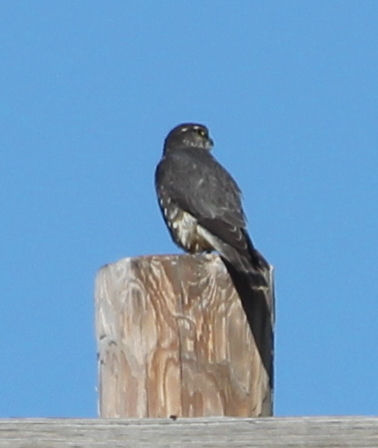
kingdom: Animalia
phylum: Chordata
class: Aves
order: Falconiformes
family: Falconidae
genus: Falco
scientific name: Falco columbarius
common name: Merlin
